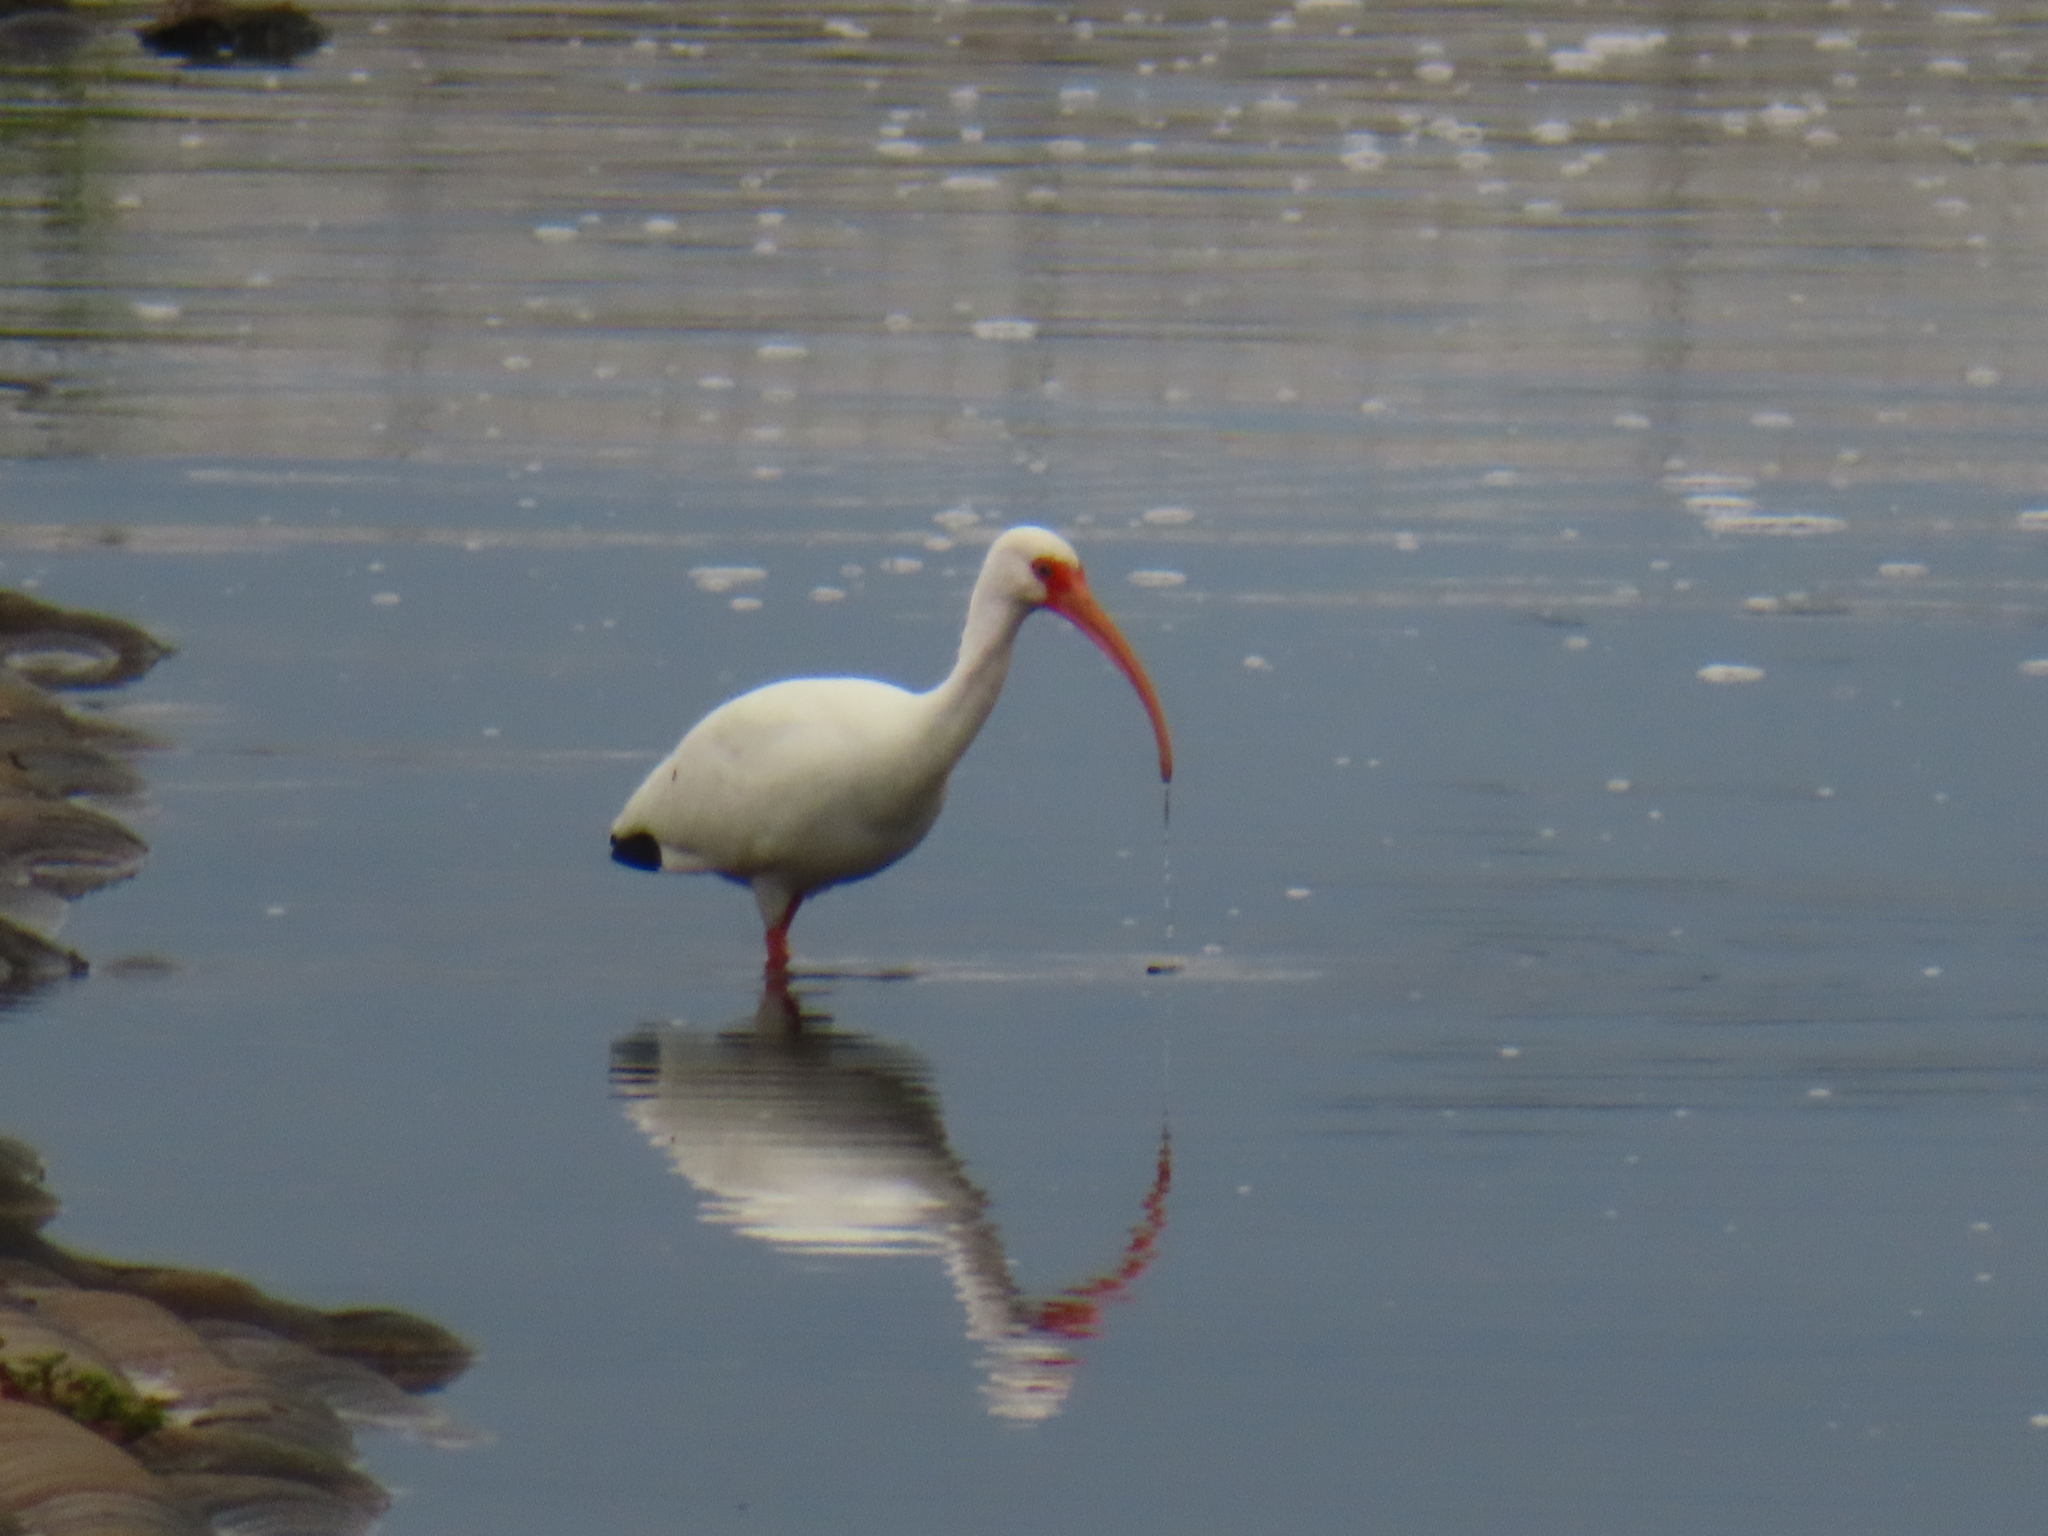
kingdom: Animalia
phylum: Chordata
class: Aves
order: Pelecaniformes
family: Threskiornithidae
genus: Eudocimus
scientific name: Eudocimus albus
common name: White ibis
